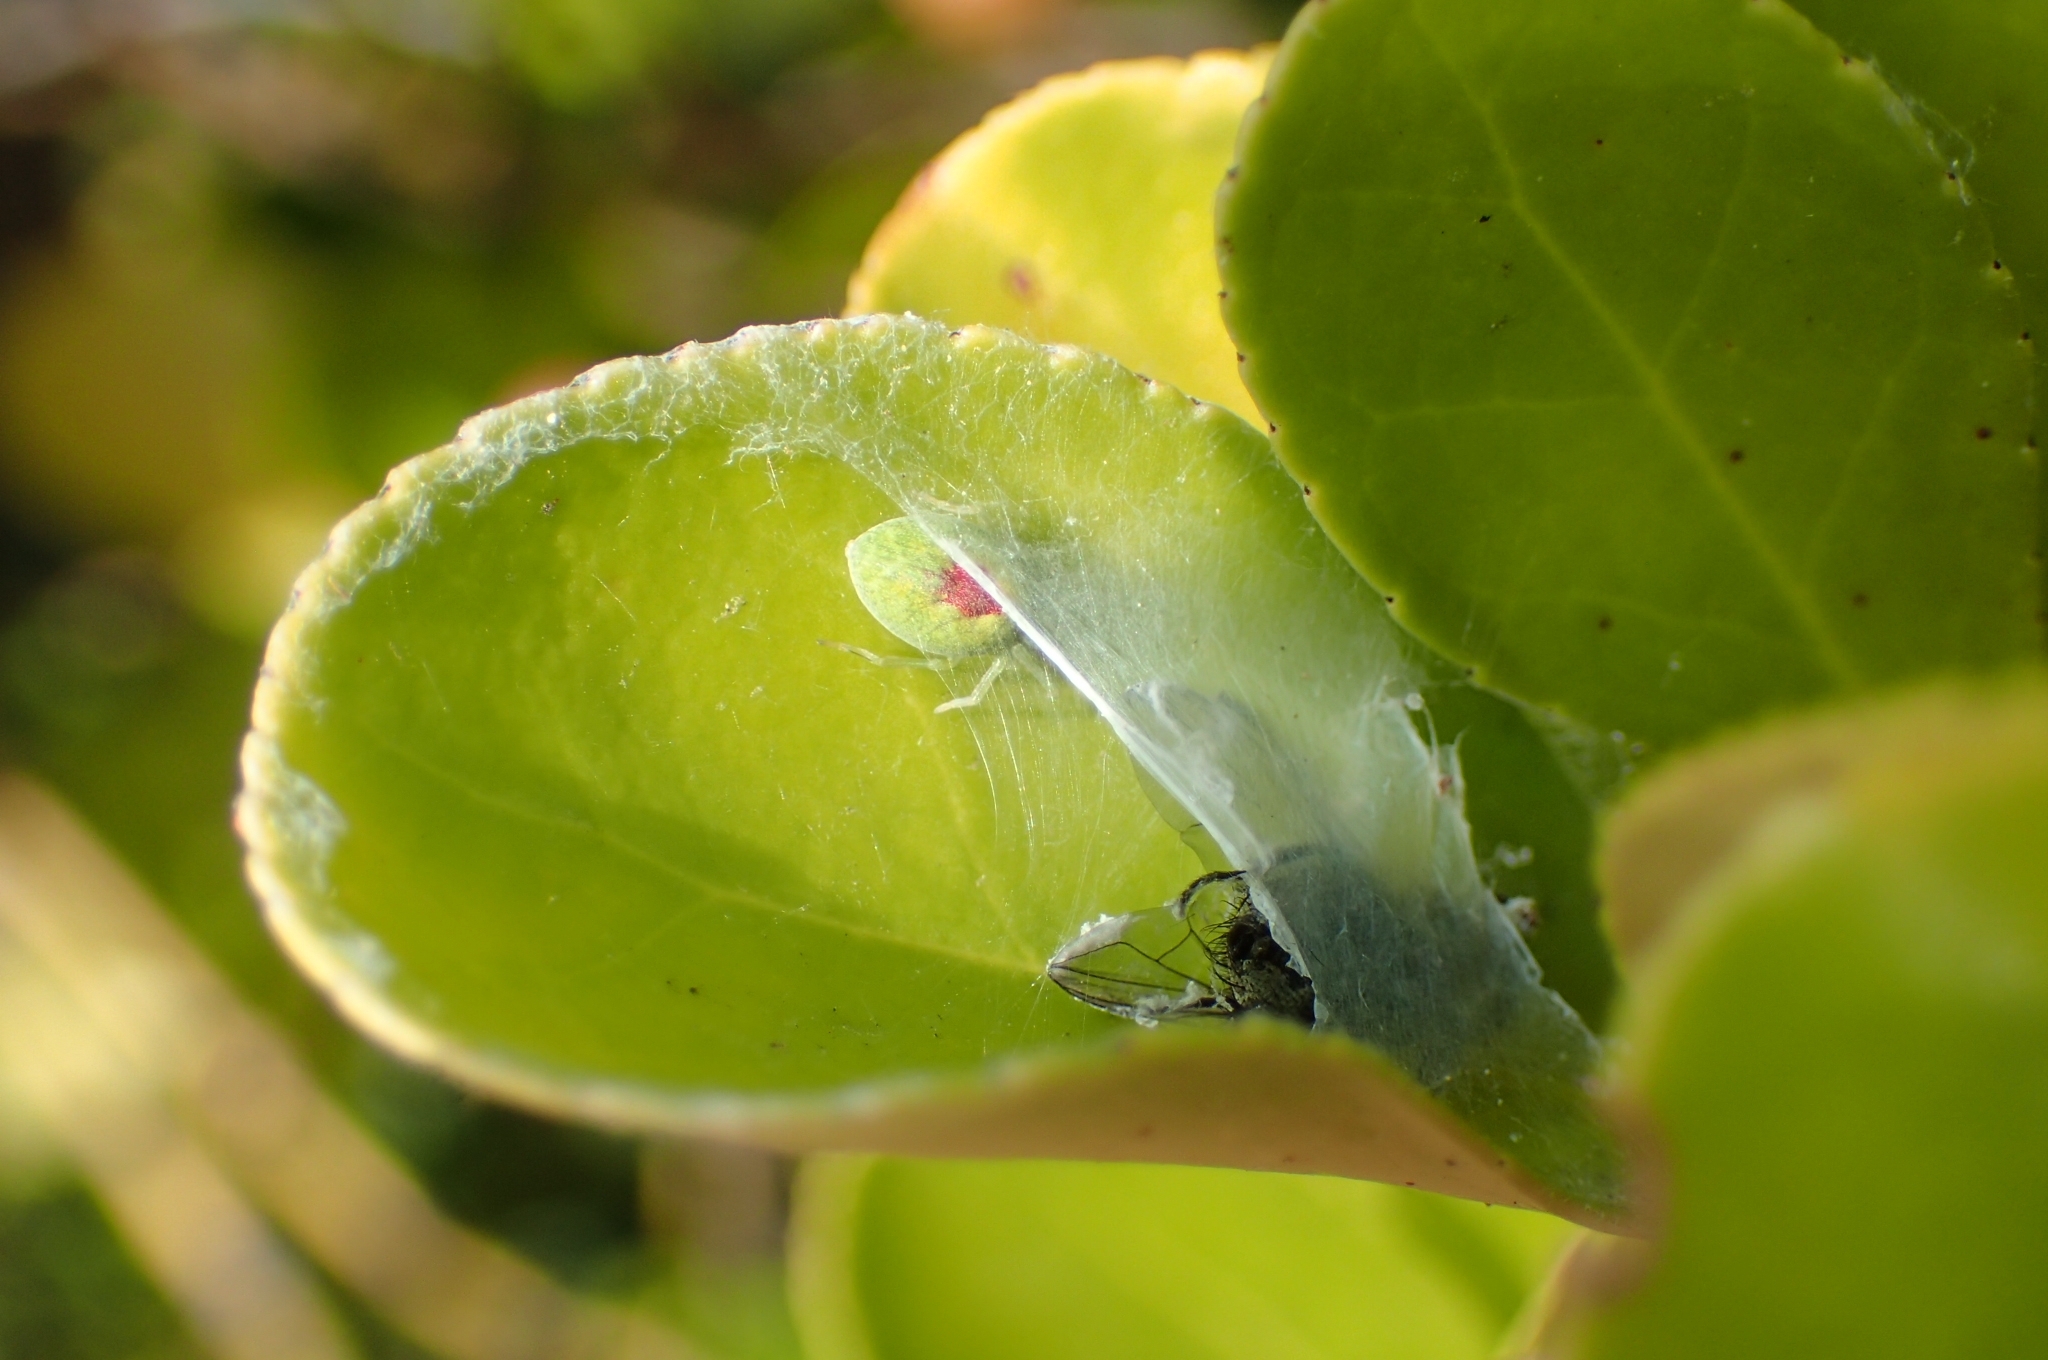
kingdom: Animalia
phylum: Arthropoda
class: Arachnida
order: Araneae
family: Dictynidae
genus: Nigma
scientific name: Nigma walckenaeri
